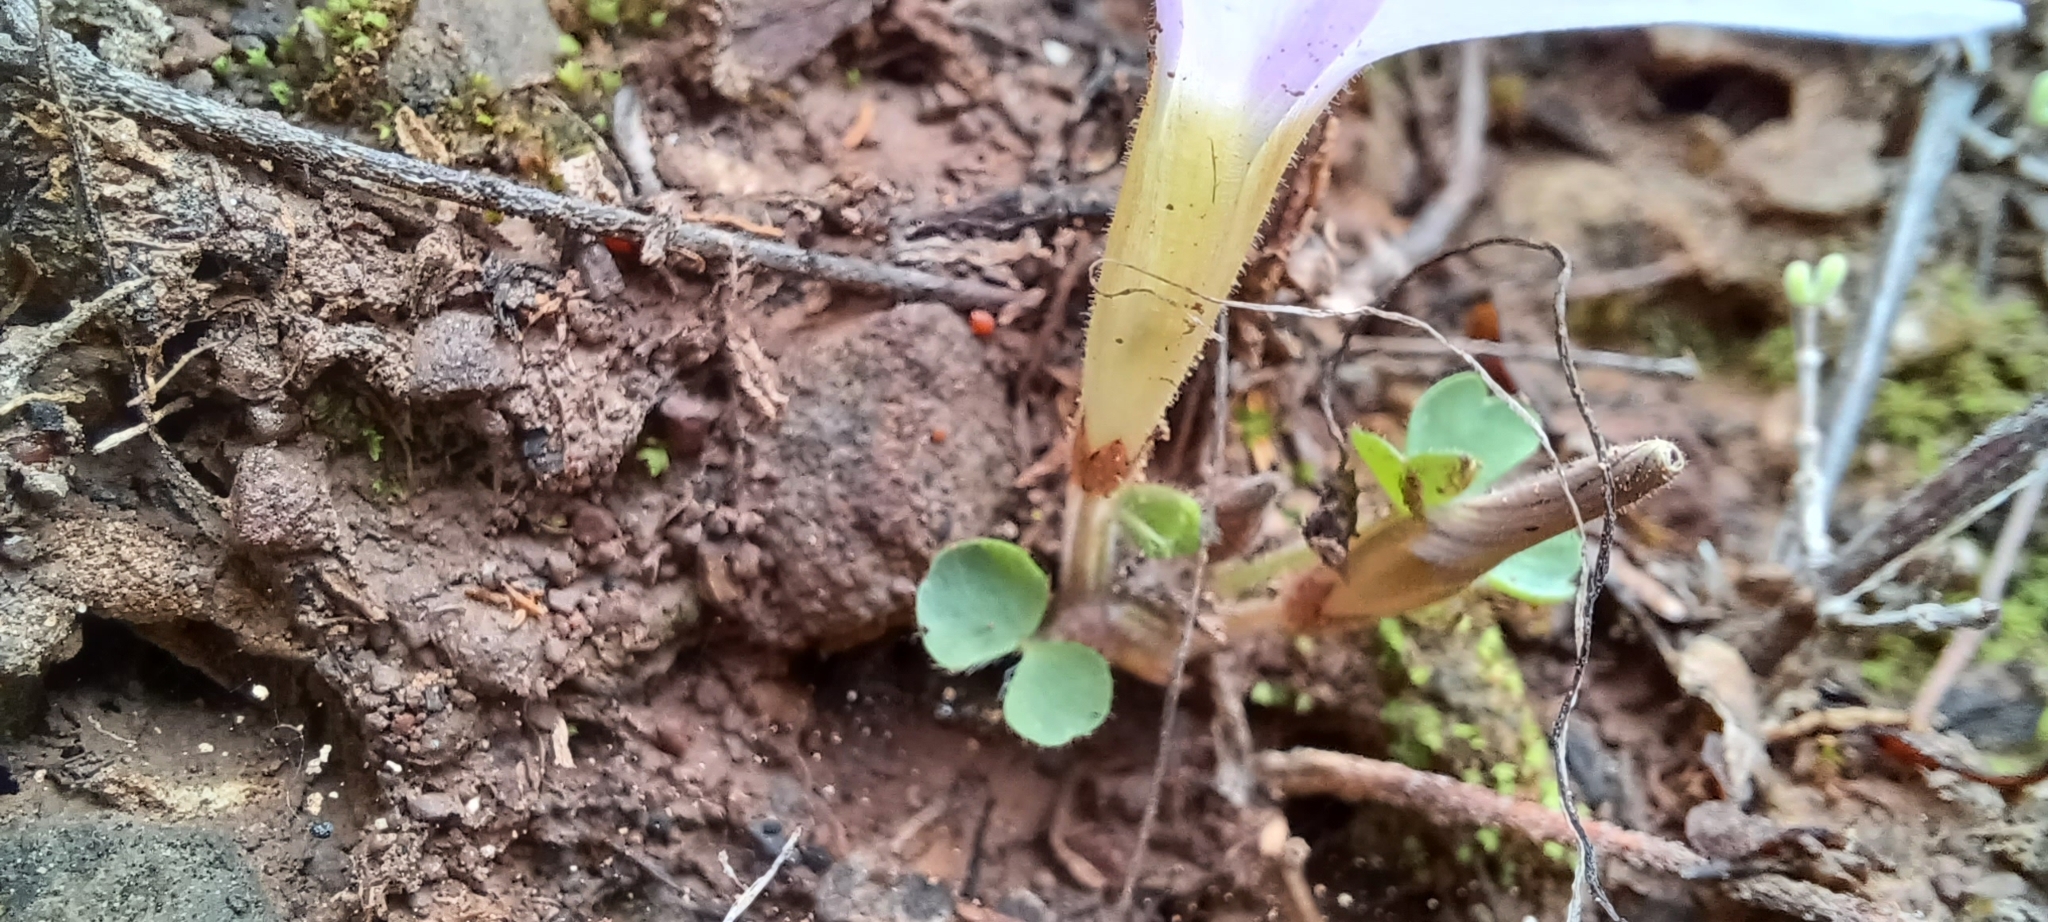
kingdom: Plantae
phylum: Tracheophyta
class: Magnoliopsida
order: Oxalidales
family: Oxalidaceae
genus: Oxalis
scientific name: Oxalis fibrosa
